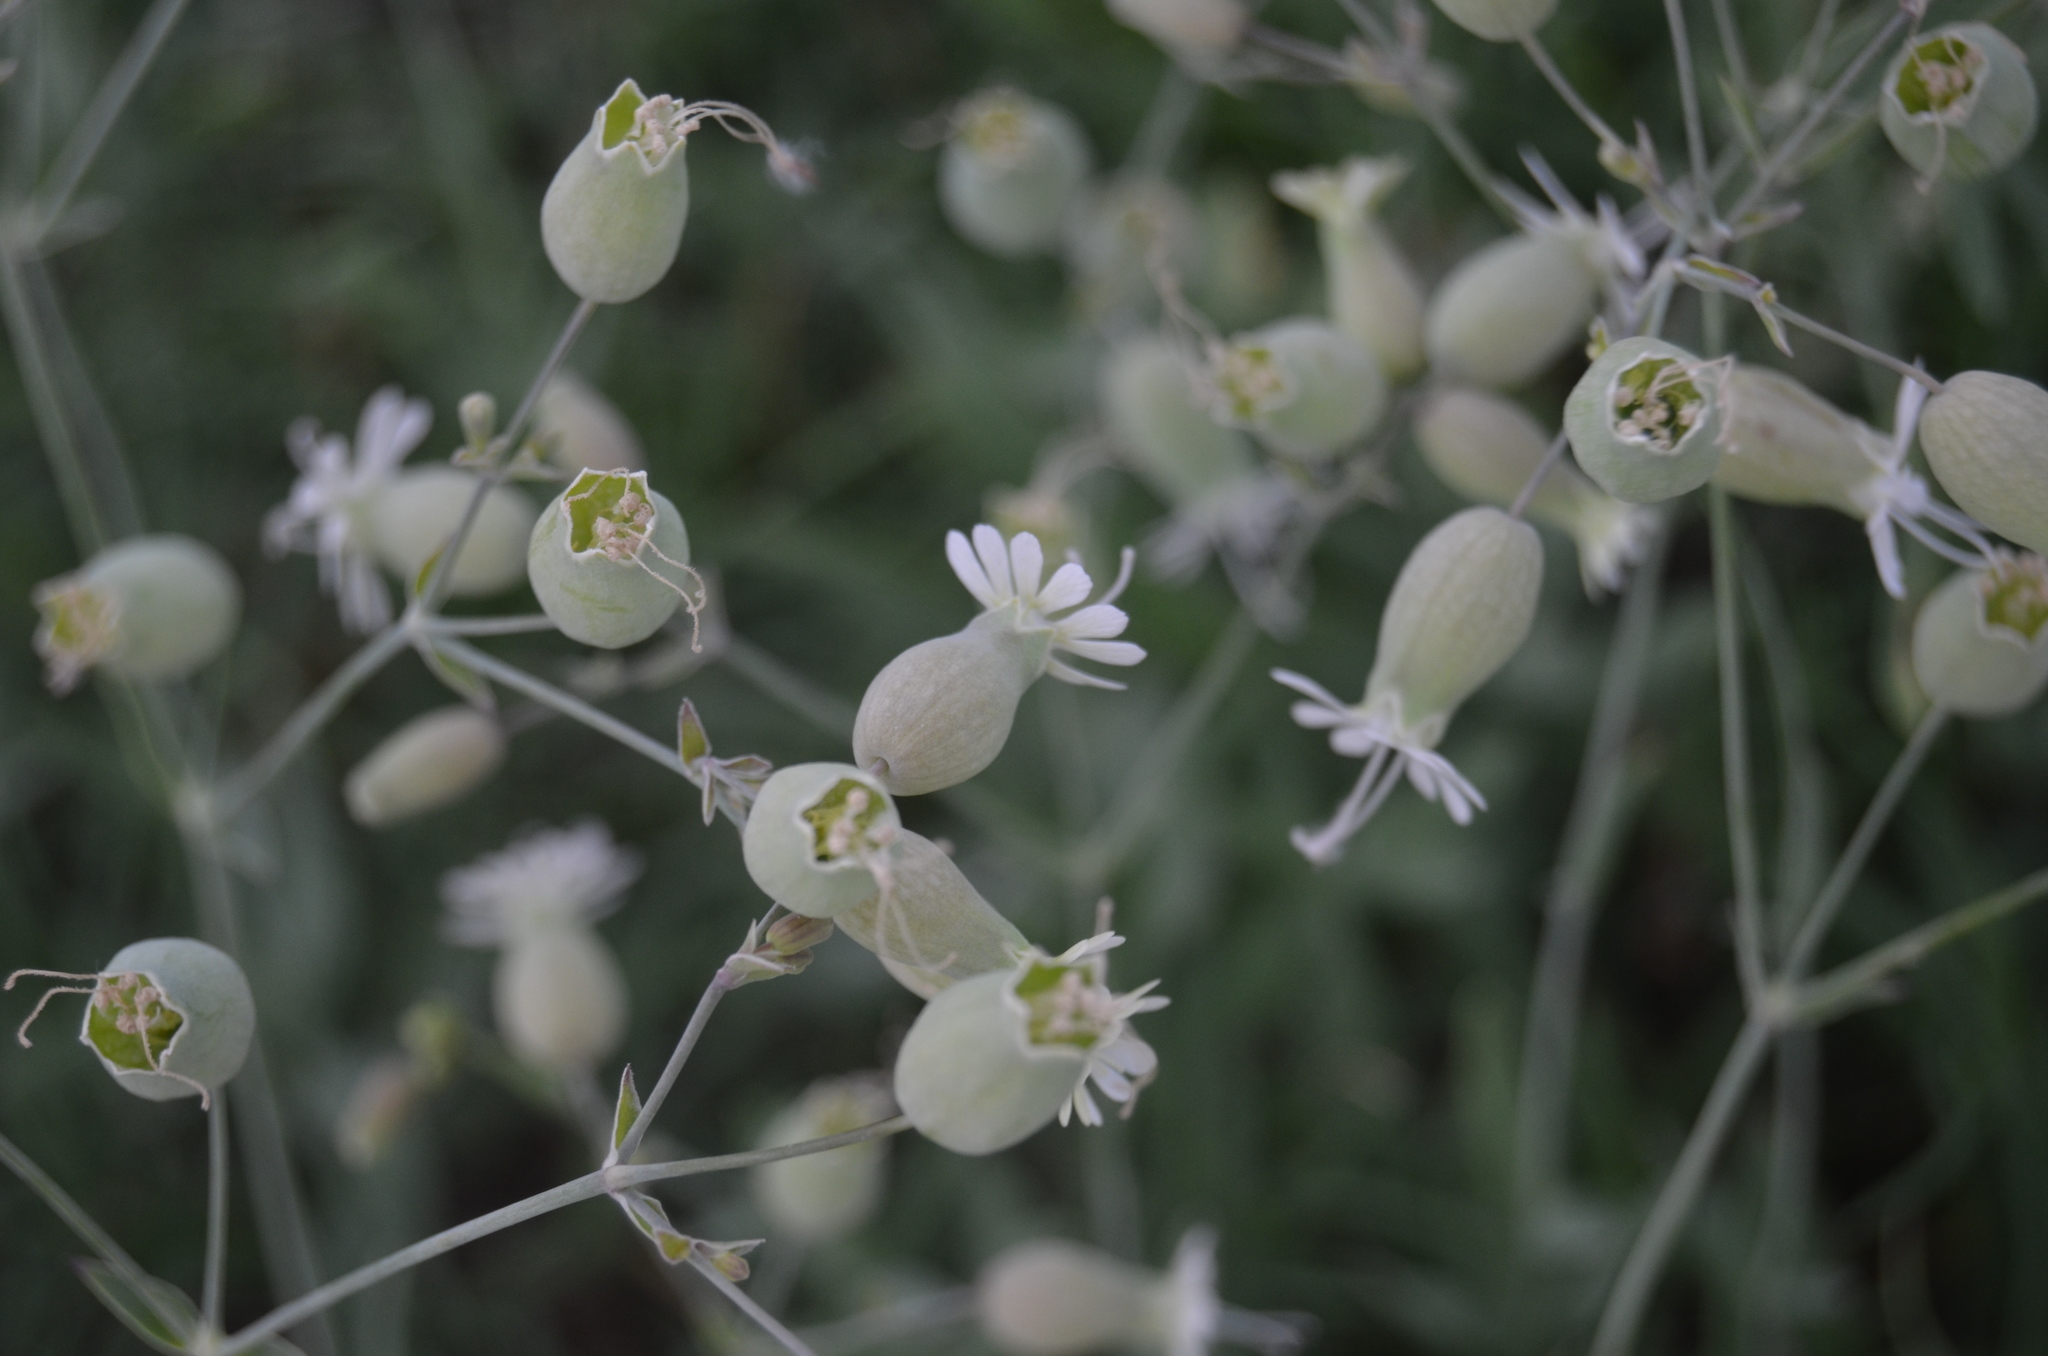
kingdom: Plantae
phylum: Tracheophyta
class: Magnoliopsida
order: Caryophyllales
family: Caryophyllaceae
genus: Silene
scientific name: Silene vulgaris
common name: Bladder campion
